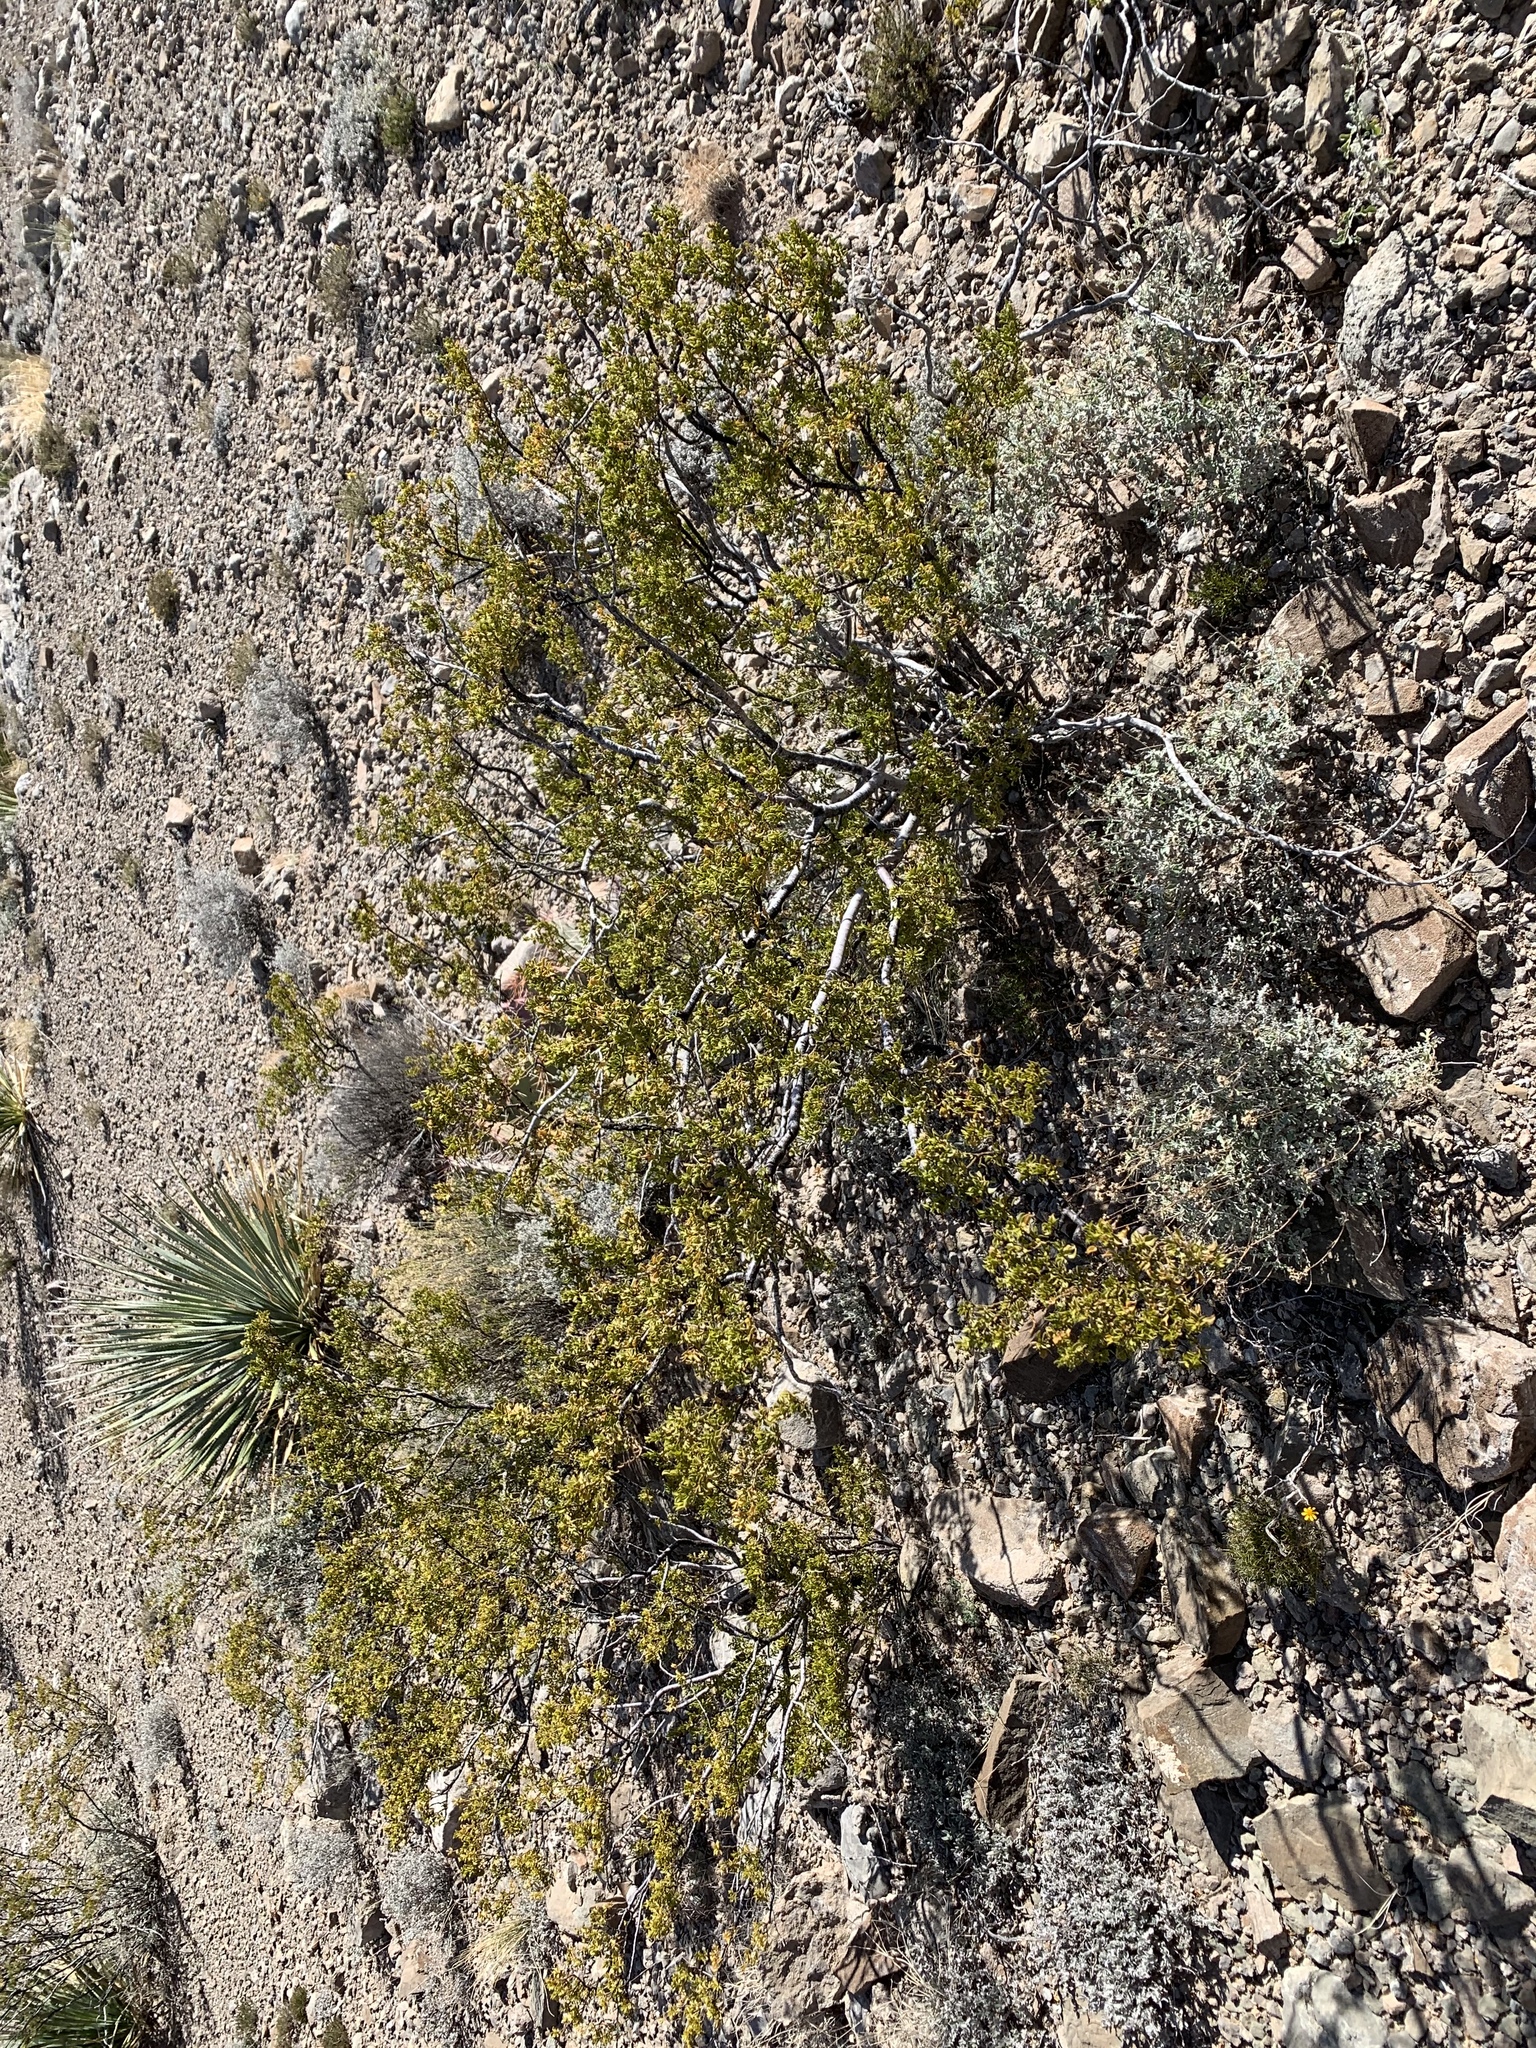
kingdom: Plantae
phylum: Tracheophyta
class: Magnoliopsida
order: Zygophyllales
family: Zygophyllaceae
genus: Larrea
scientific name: Larrea tridentata
